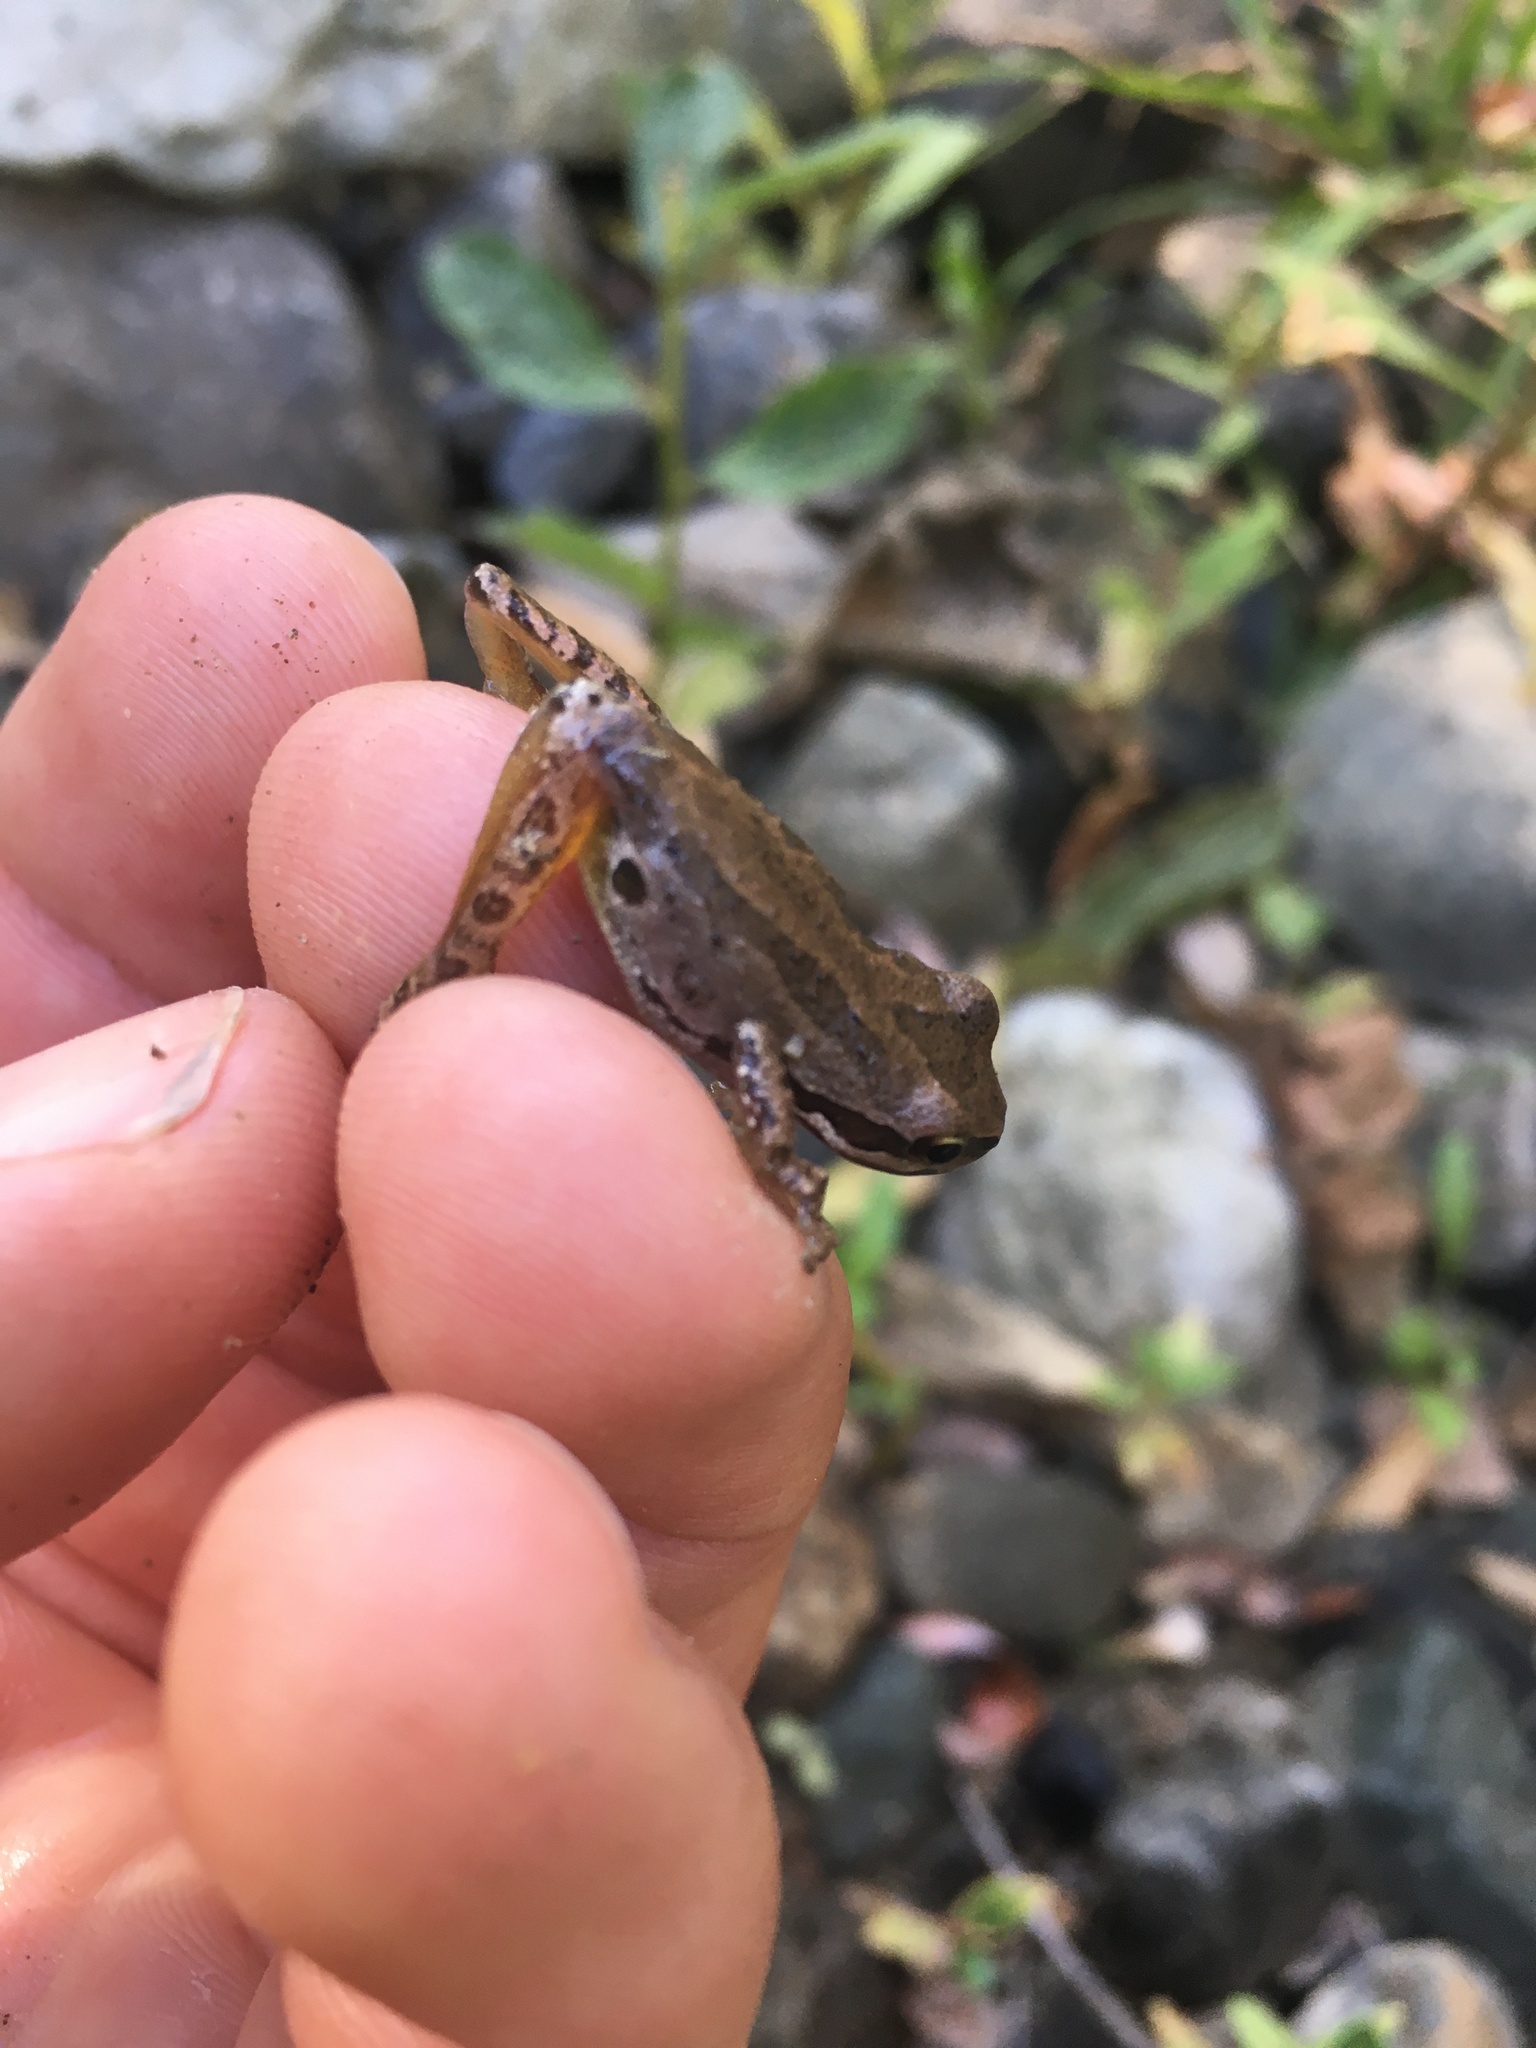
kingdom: Animalia
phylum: Chordata
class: Amphibia
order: Anura
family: Hylidae
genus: Pseudacris
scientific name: Pseudacris regilla
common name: Pacific chorus frog
